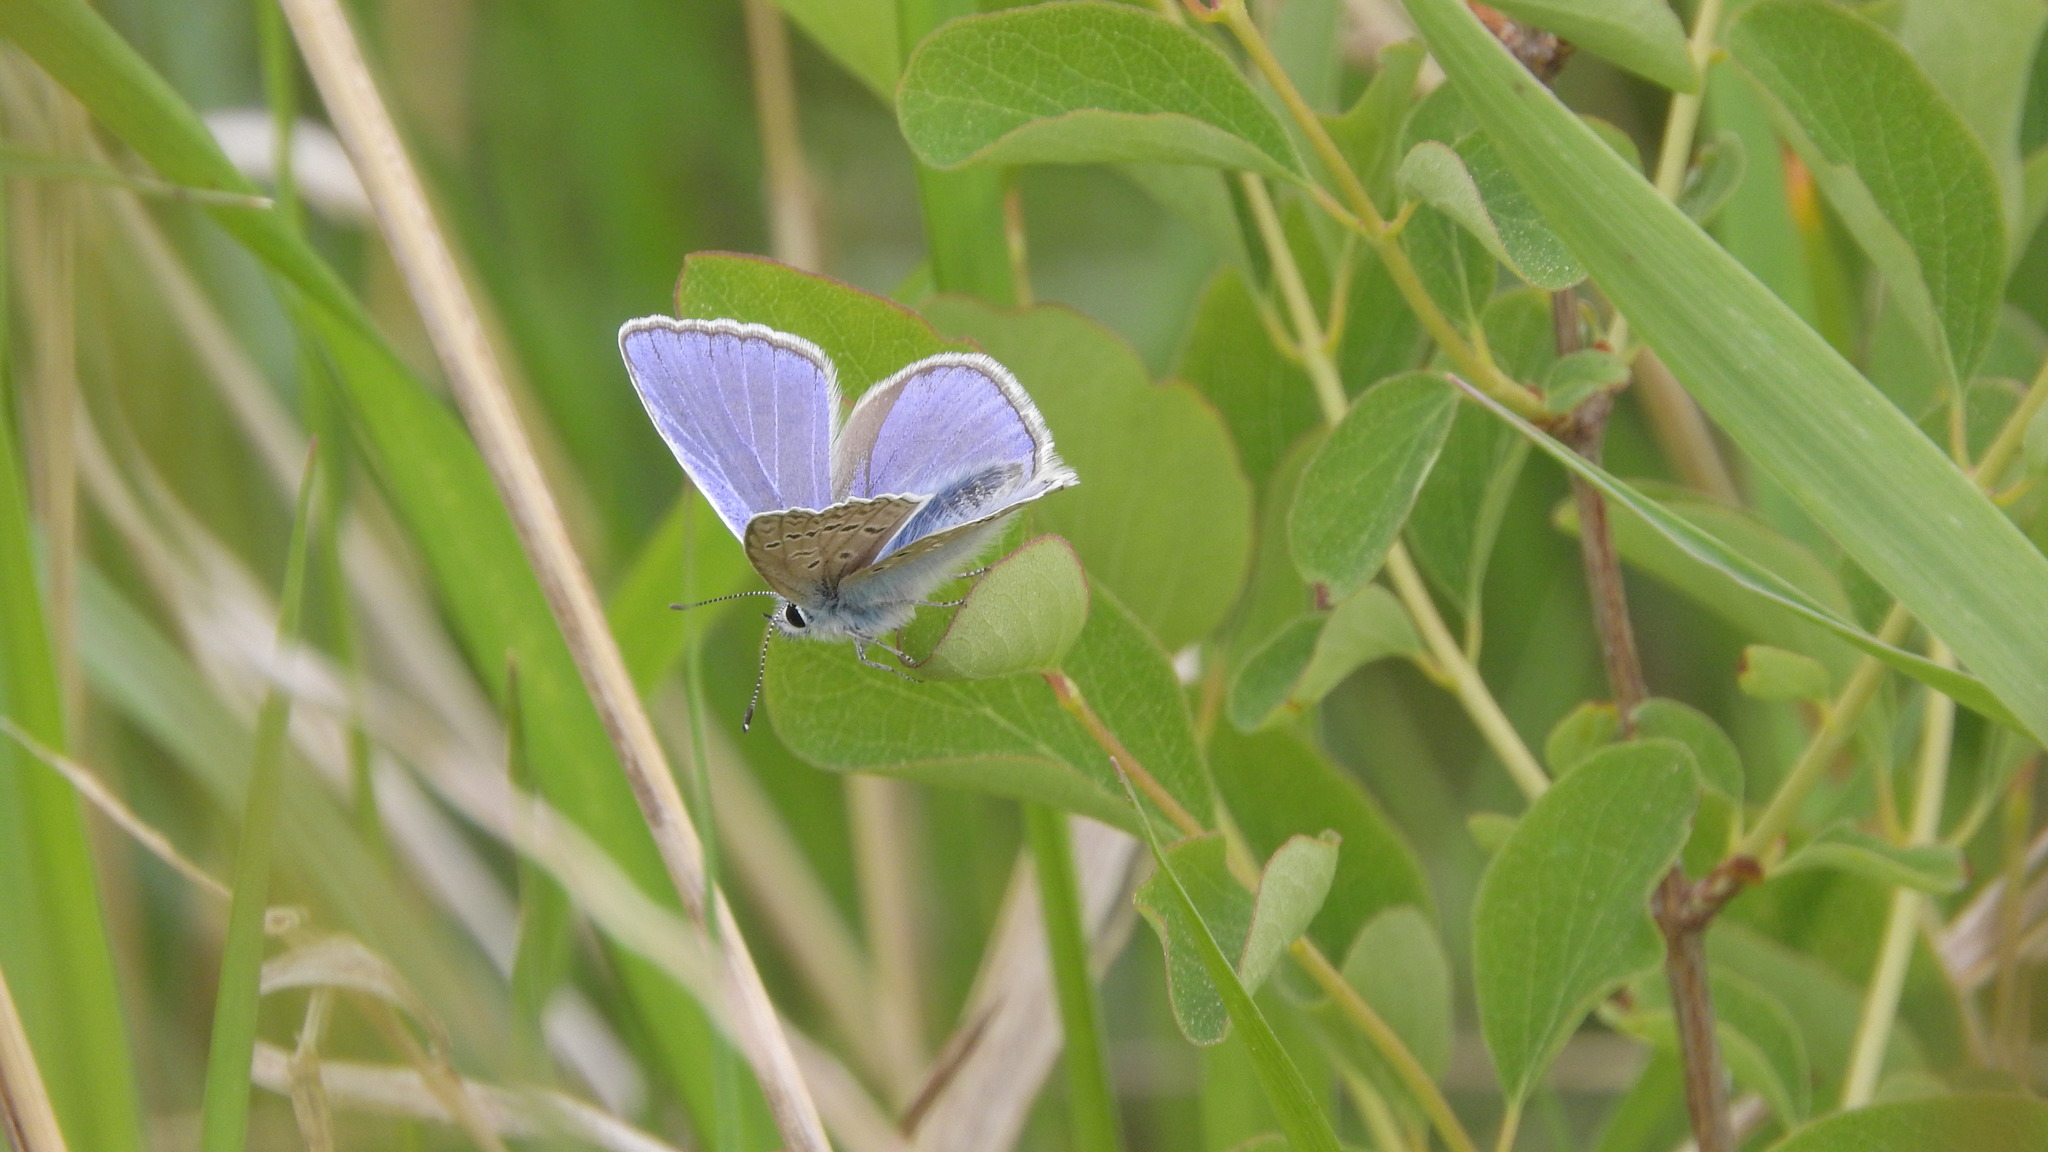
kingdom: Animalia
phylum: Arthropoda
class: Insecta
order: Lepidoptera
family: Lycaenidae
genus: Polyommatus
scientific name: Polyommatus icarus
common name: Common blue
